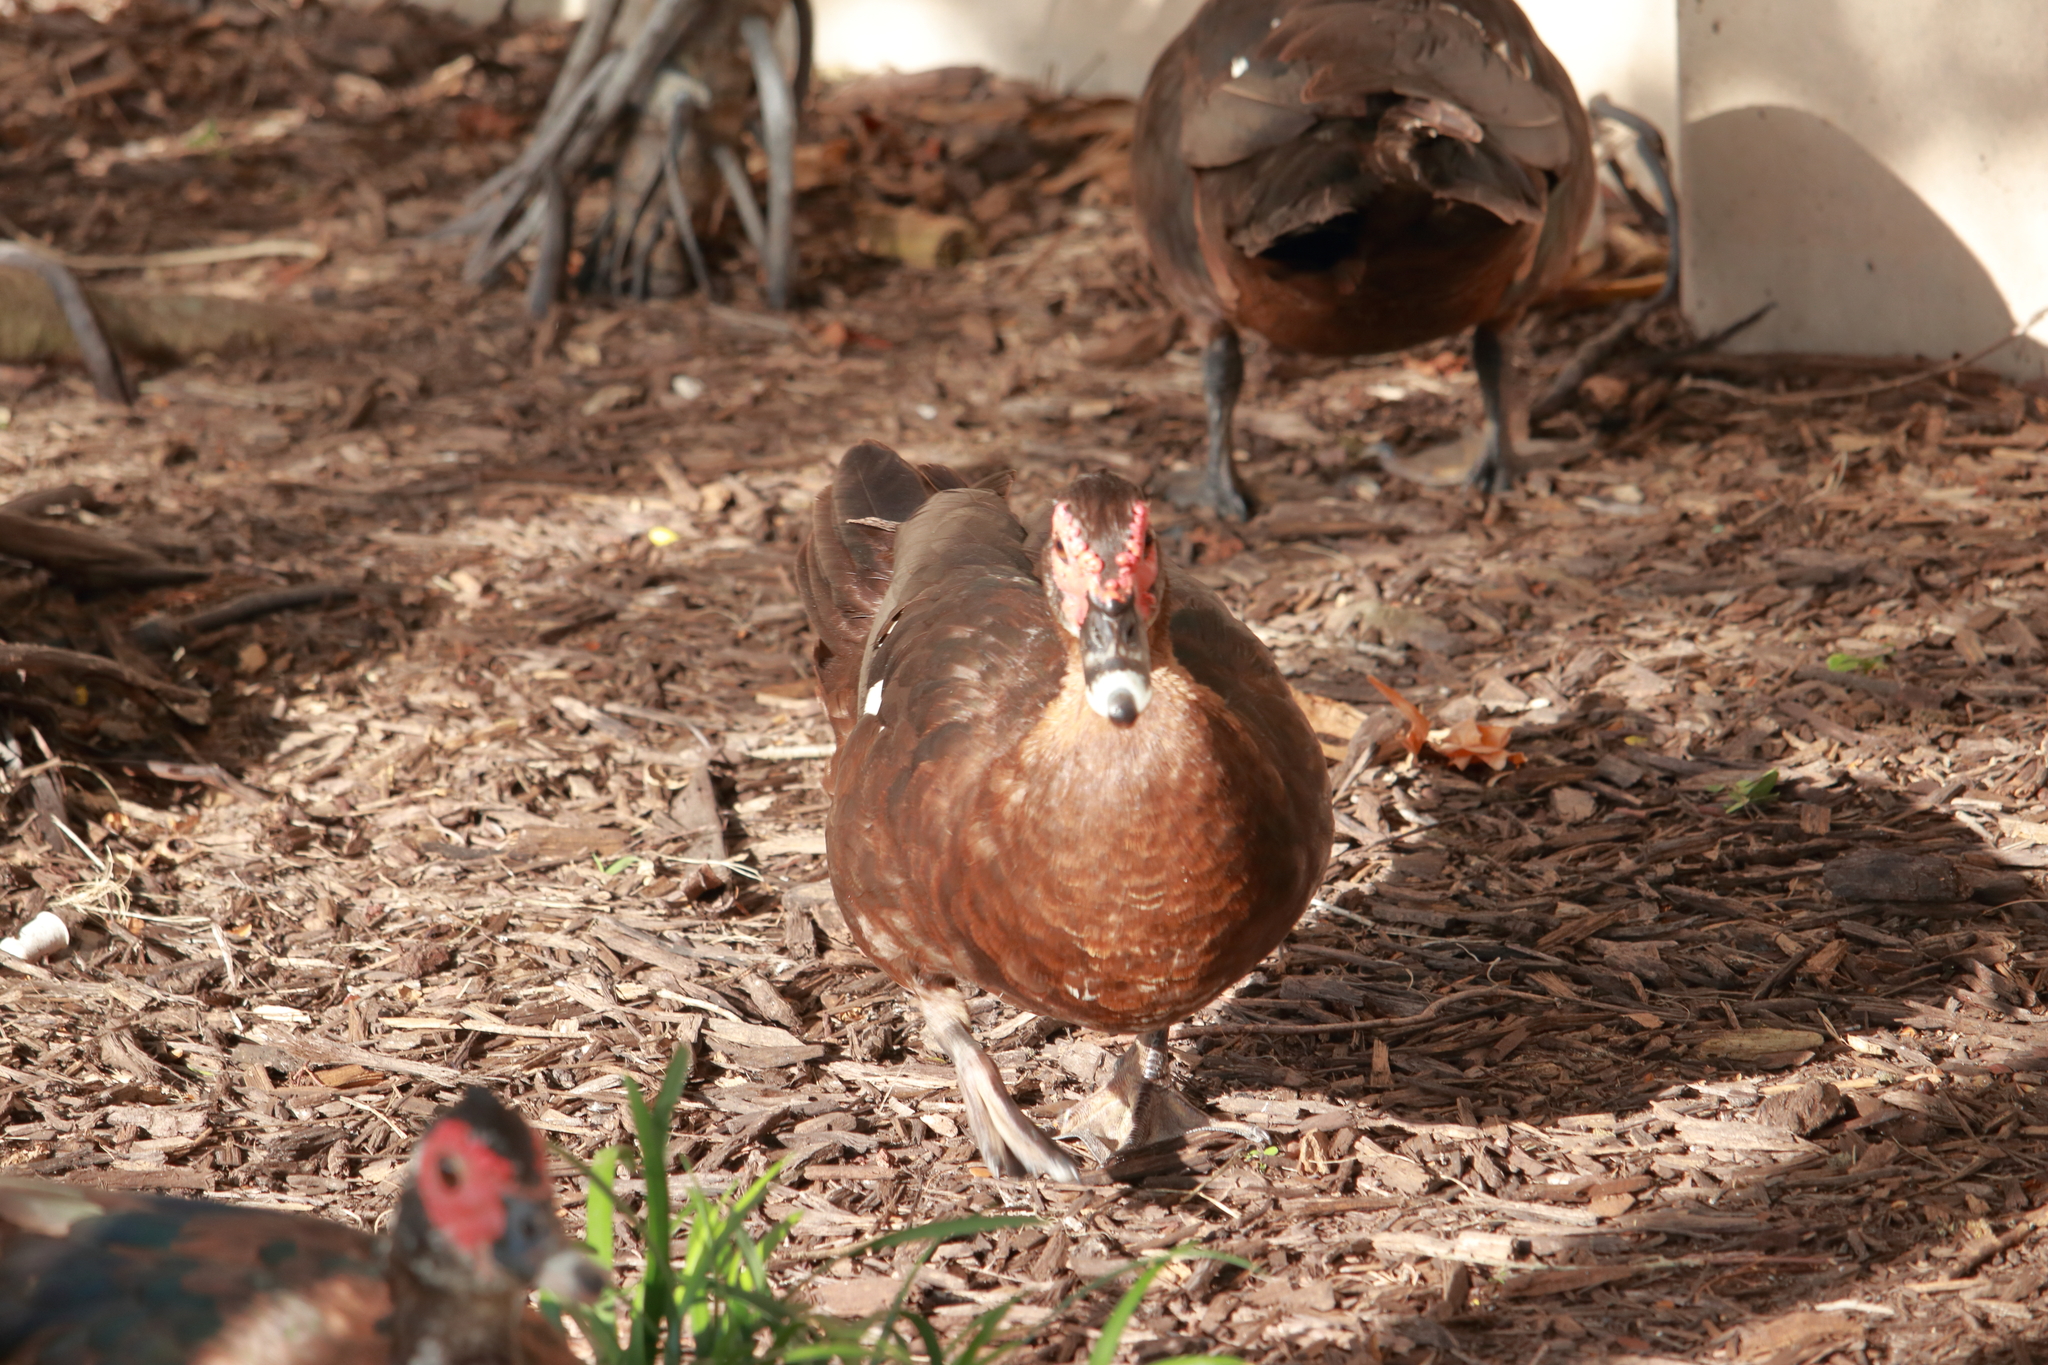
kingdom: Animalia
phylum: Chordata
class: Aves
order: Anseriformes
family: Anatidae
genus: Cairina
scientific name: Cairina moschata
